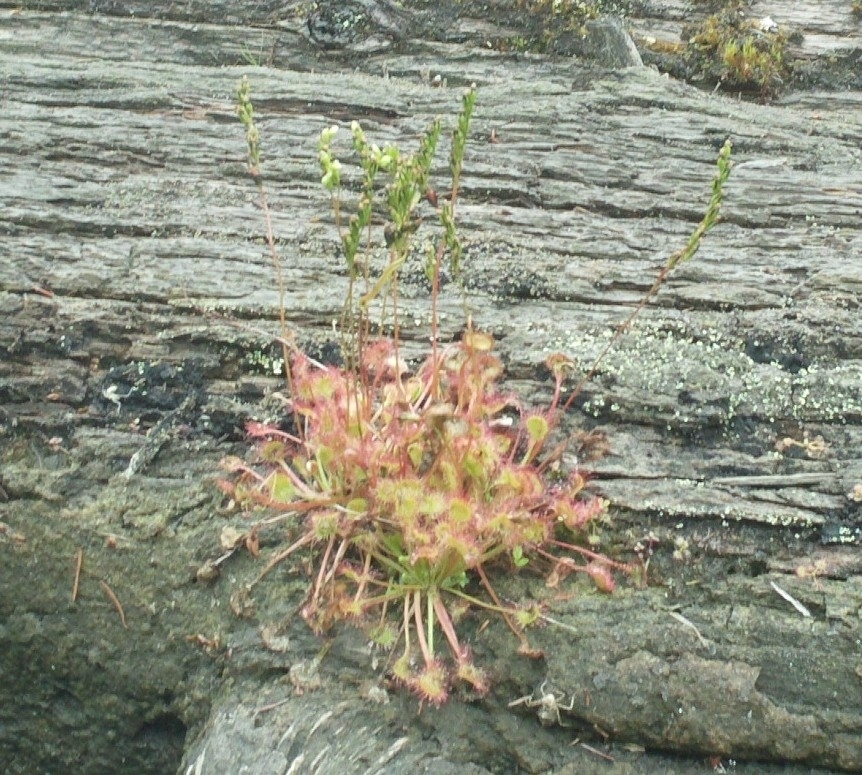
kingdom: Plantae
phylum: Tracheophyta
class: Magnoliopsida
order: Caryophyllales
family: Droseraceae
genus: Drosera
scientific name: Drosera rotundifolia
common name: Round-leaved sundew
